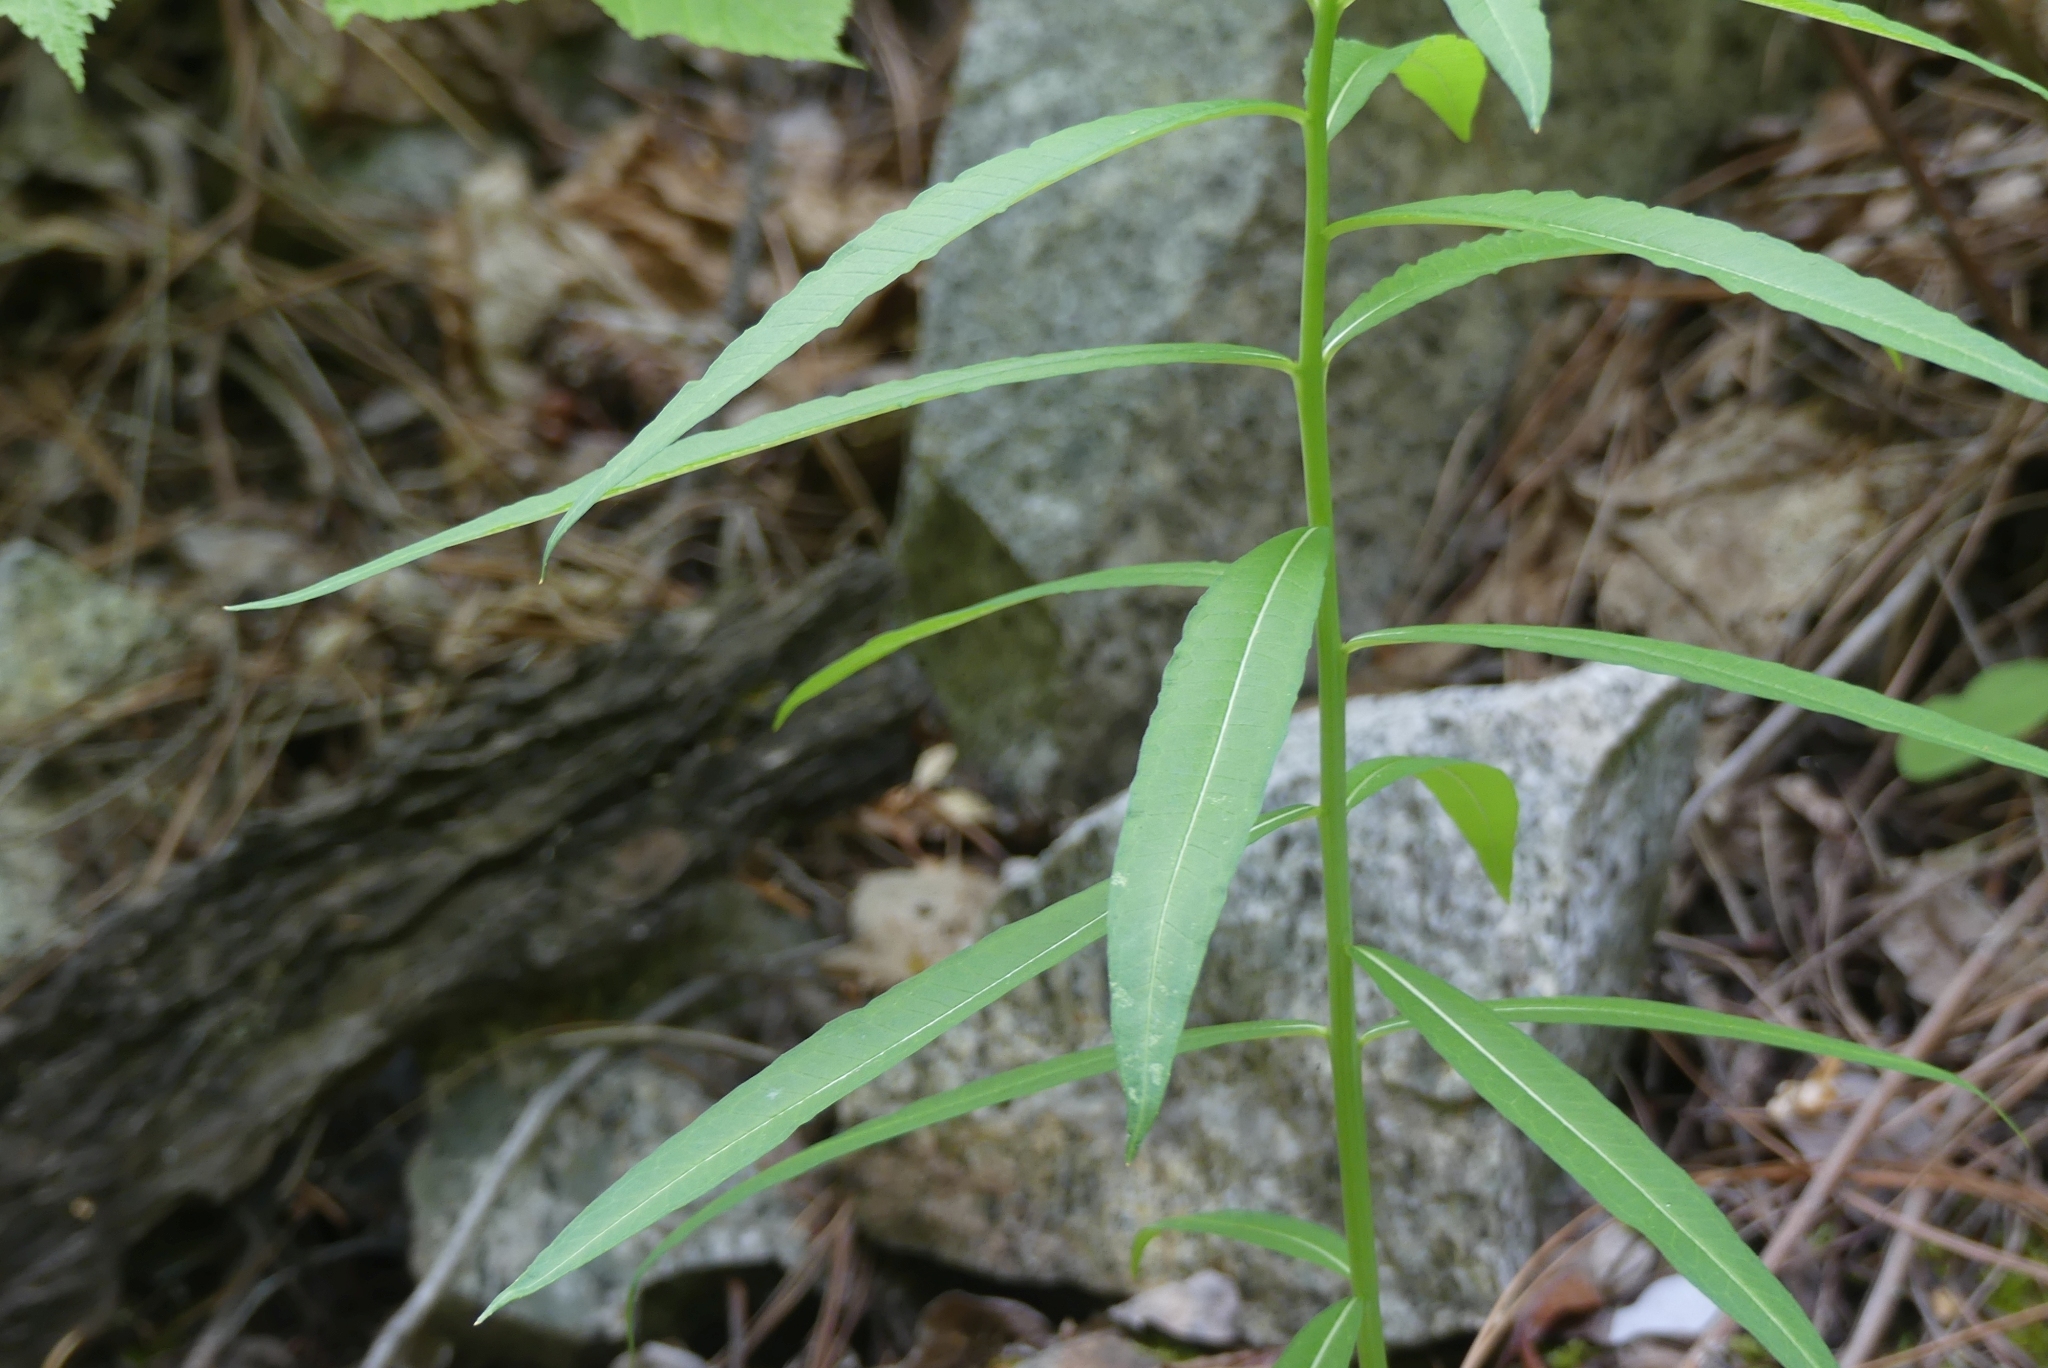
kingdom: Plantae
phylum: Tracheophyta
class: Magnoliopsida
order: Myrtales
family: Onagraceae
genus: Chamaenerion
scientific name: Chamaenerion angustifolium
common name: Fireweed
